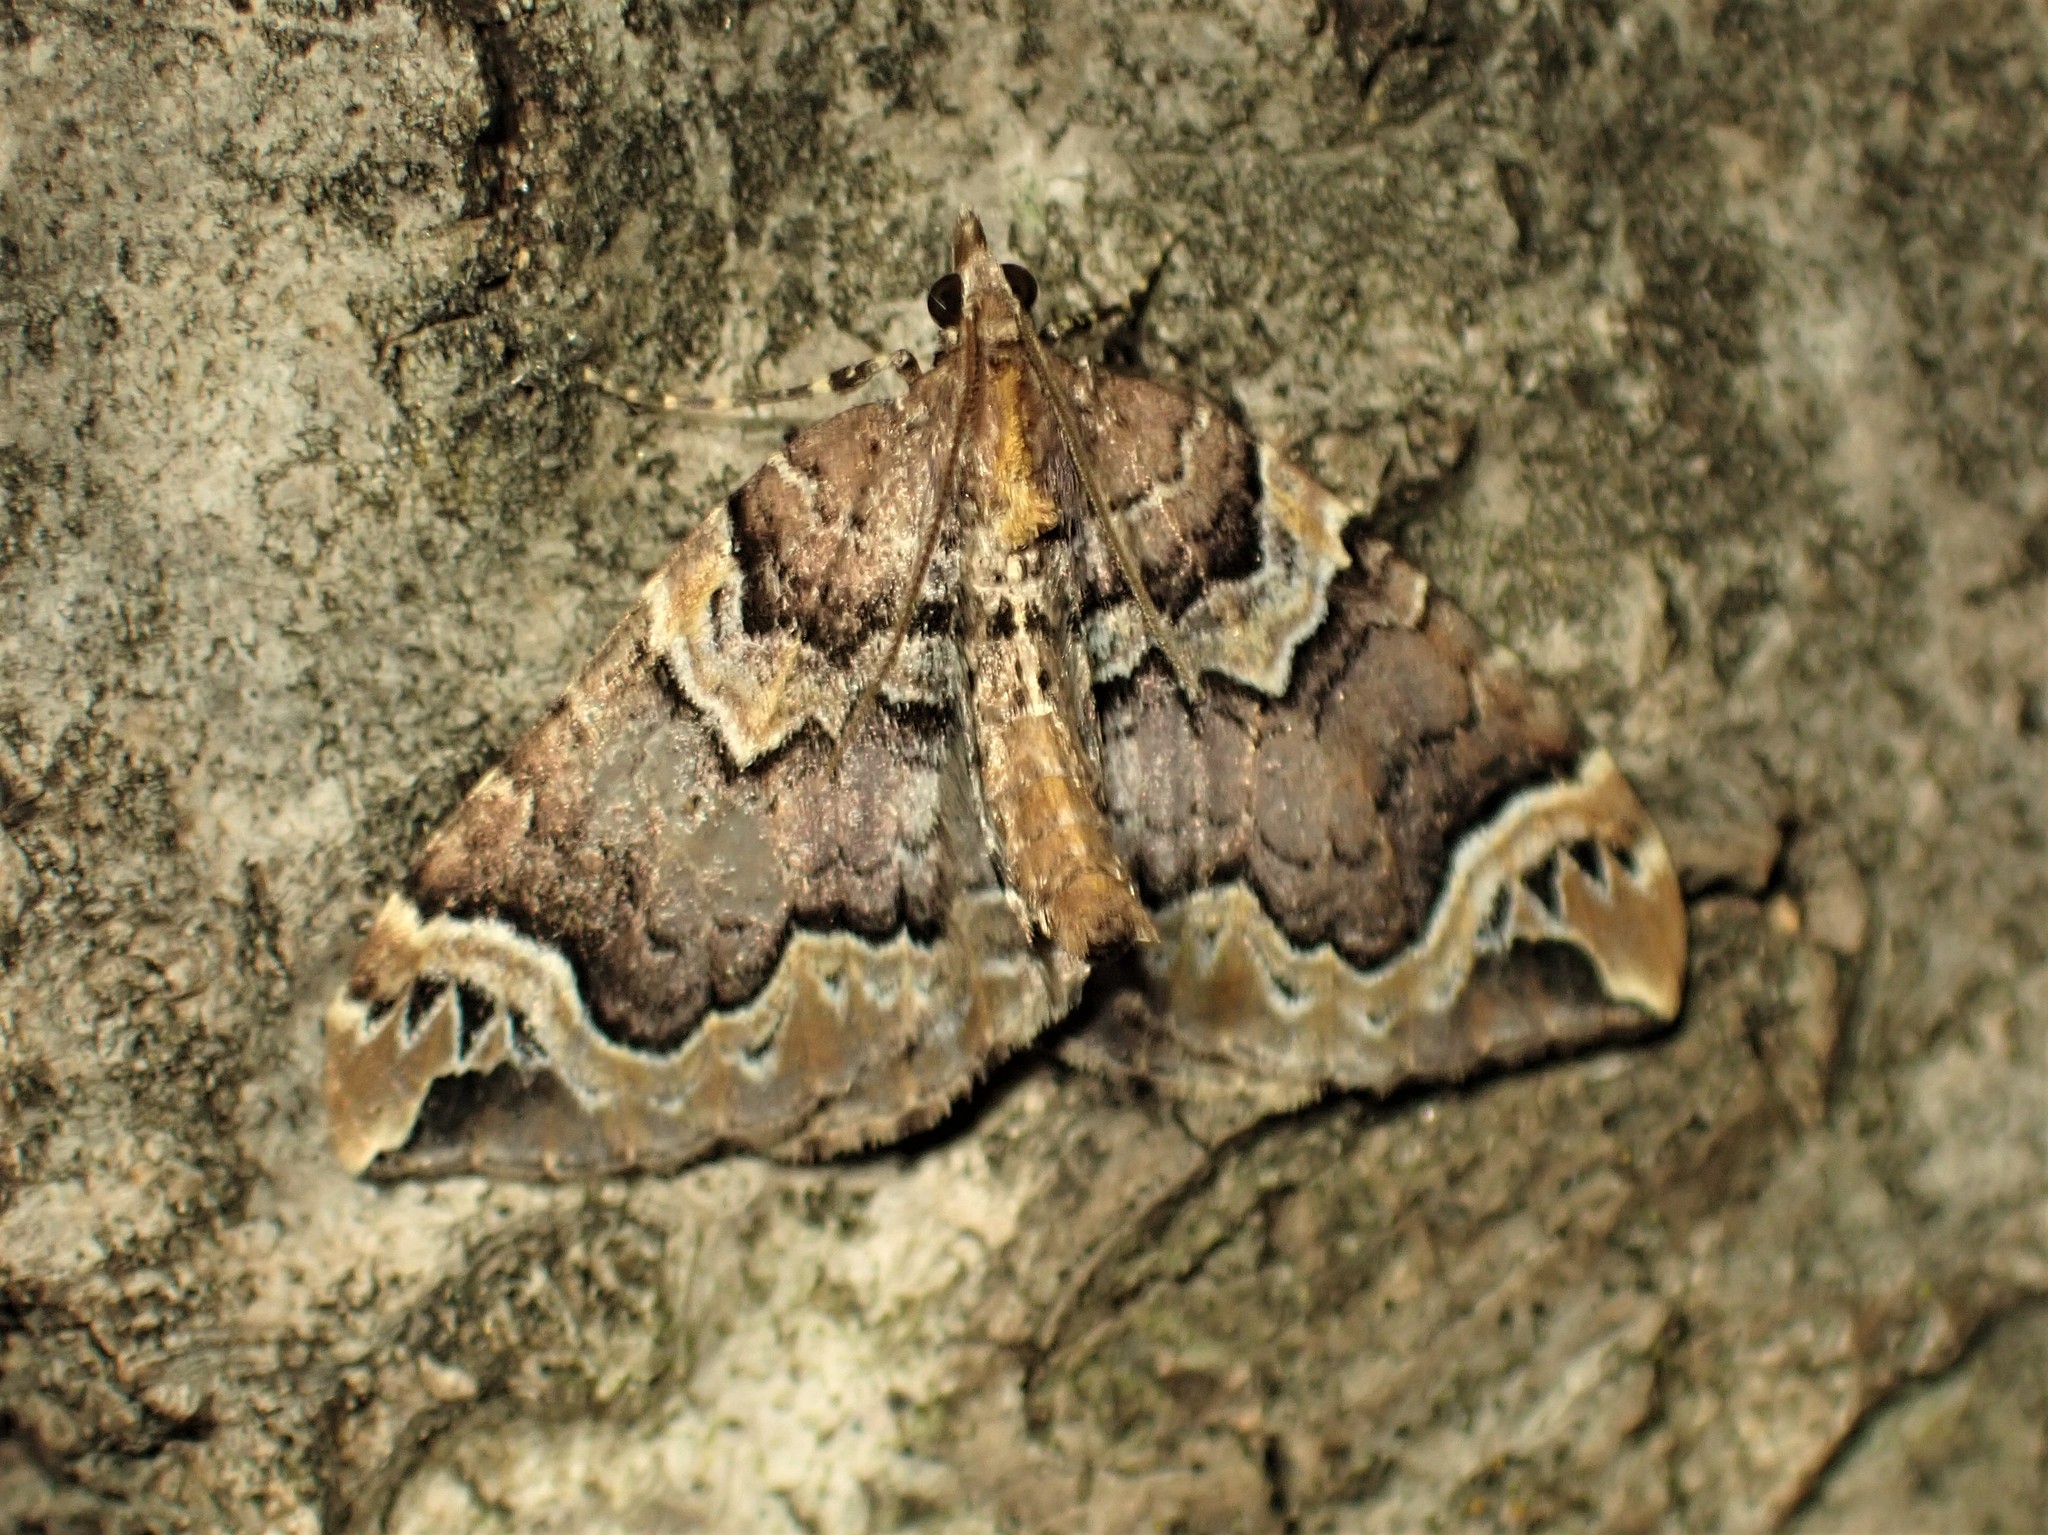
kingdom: Animalia
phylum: Arthropoda
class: Insecta
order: Lepidoptera
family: Geometridae
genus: Eulithis
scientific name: Eulithis serrataria
